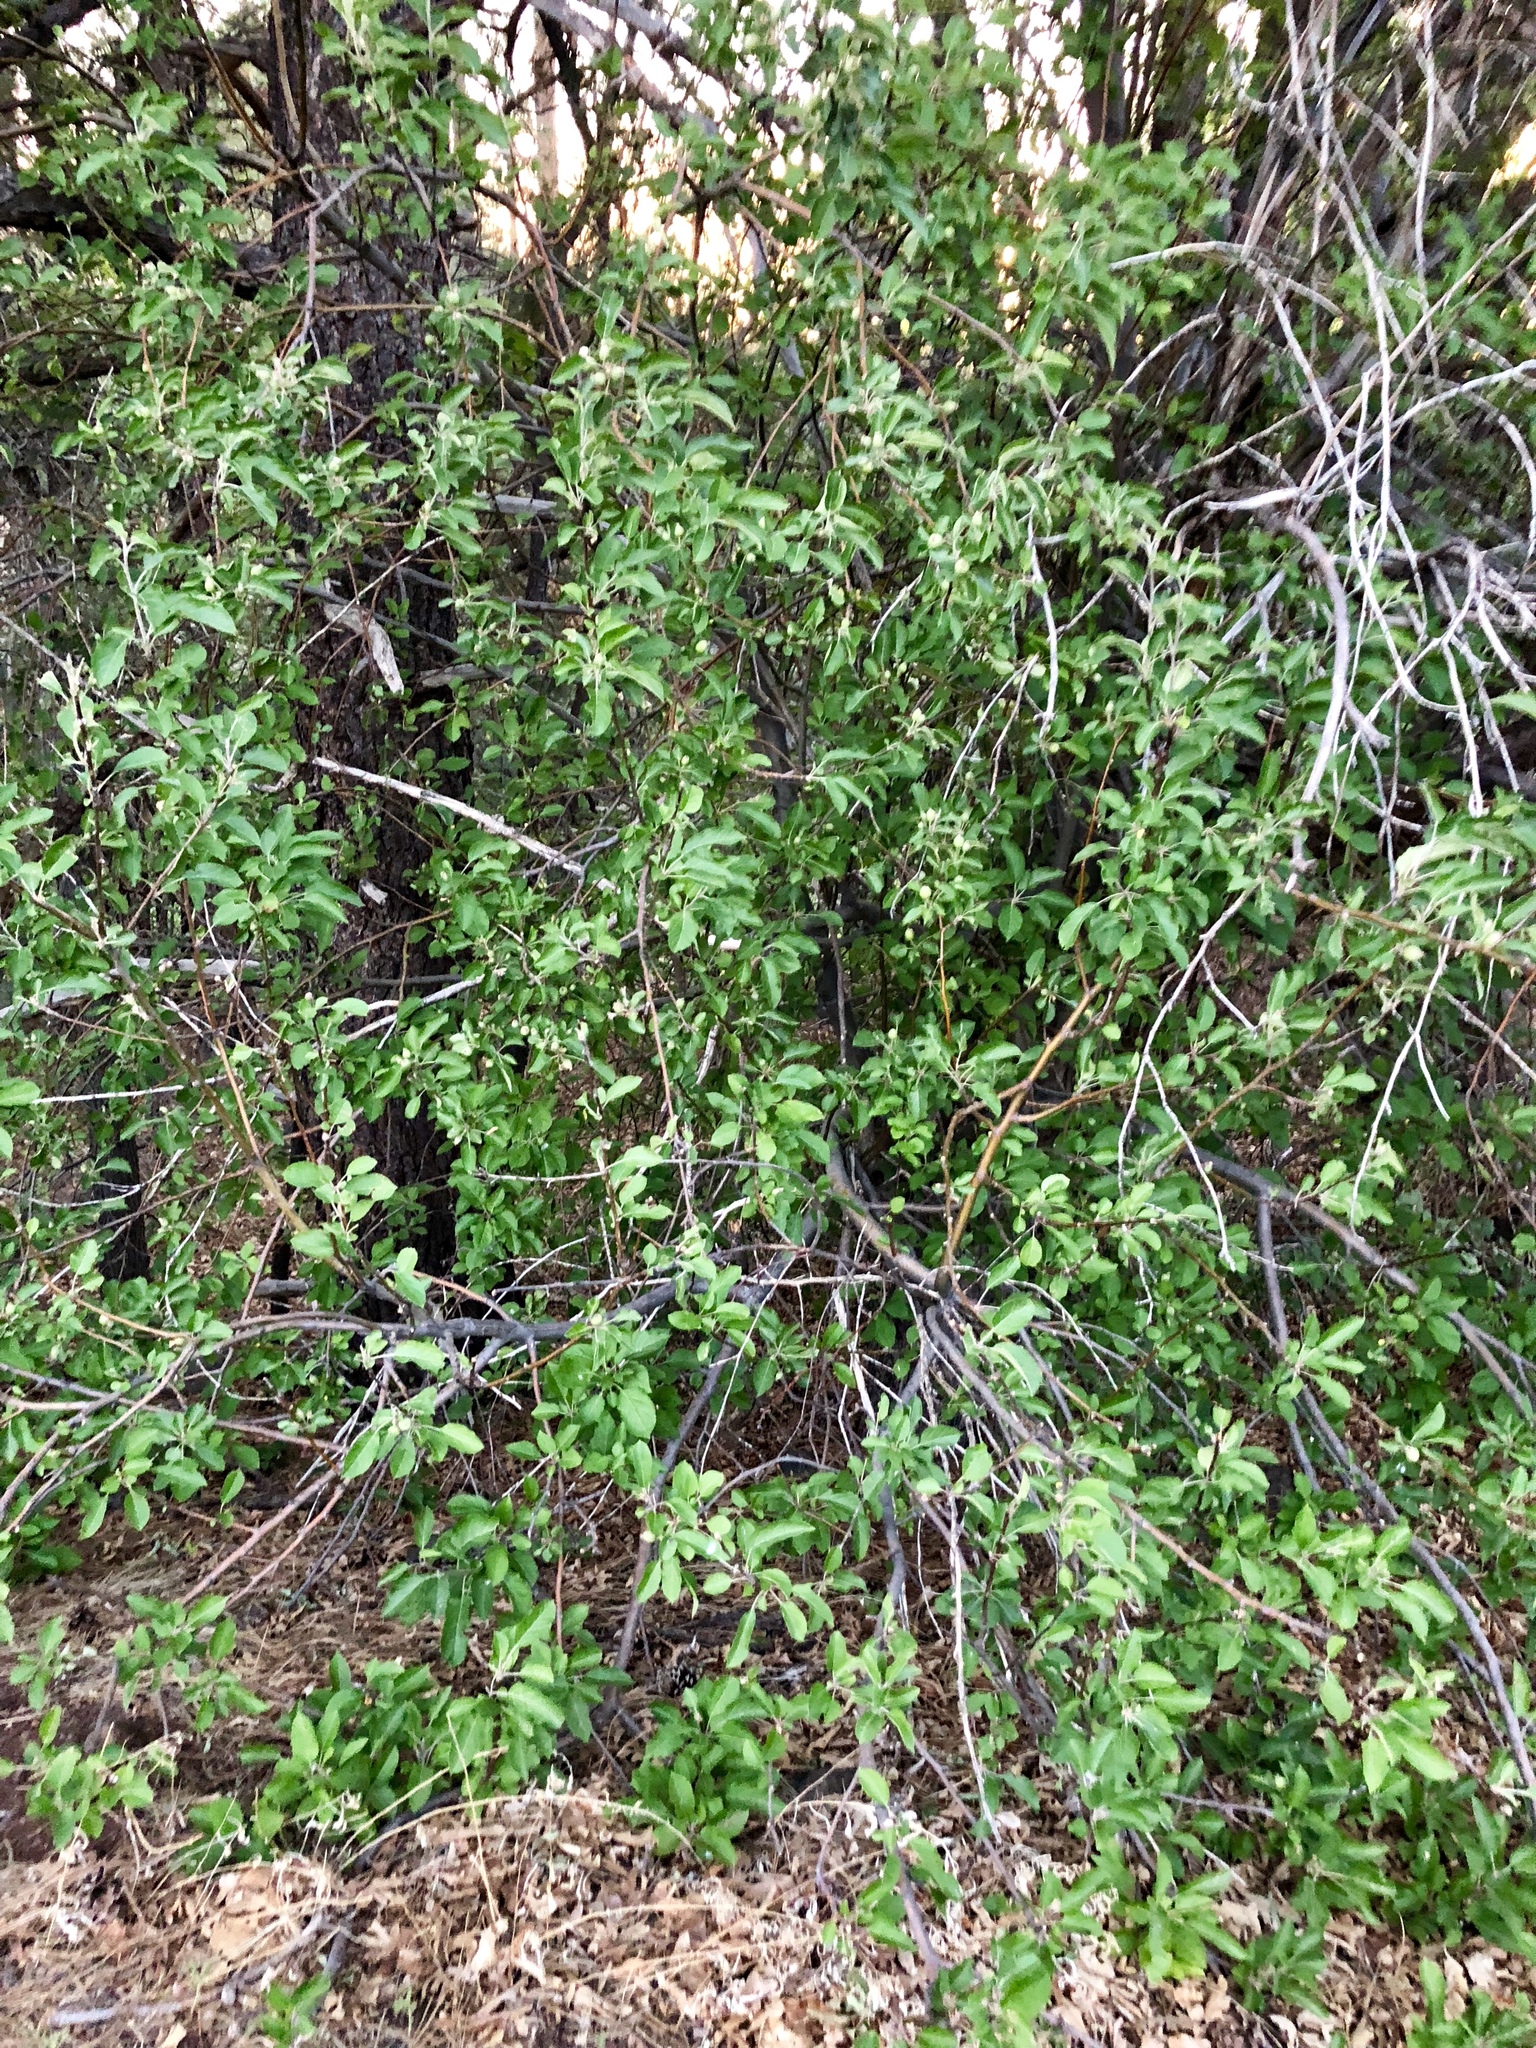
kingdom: Plantae
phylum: Tracheophyta
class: Magnoliopsida
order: Rosales
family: Rosaceae
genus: Malus
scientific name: Malus domestica
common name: Apple
